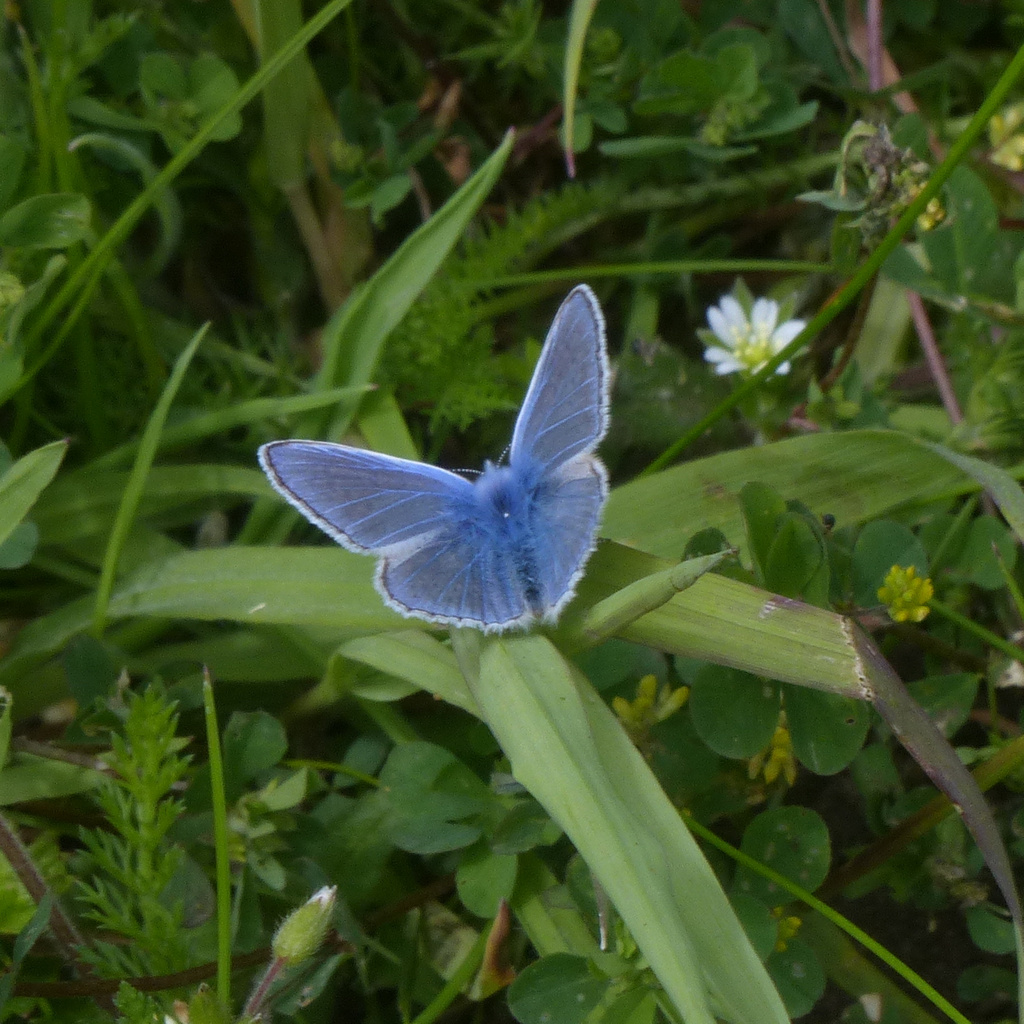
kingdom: Animalia
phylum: Arthropoda
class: Insecta
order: Lepidoptera
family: Lycaenidae
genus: Polyommatus
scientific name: Polyommatus icarus
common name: Common blue
